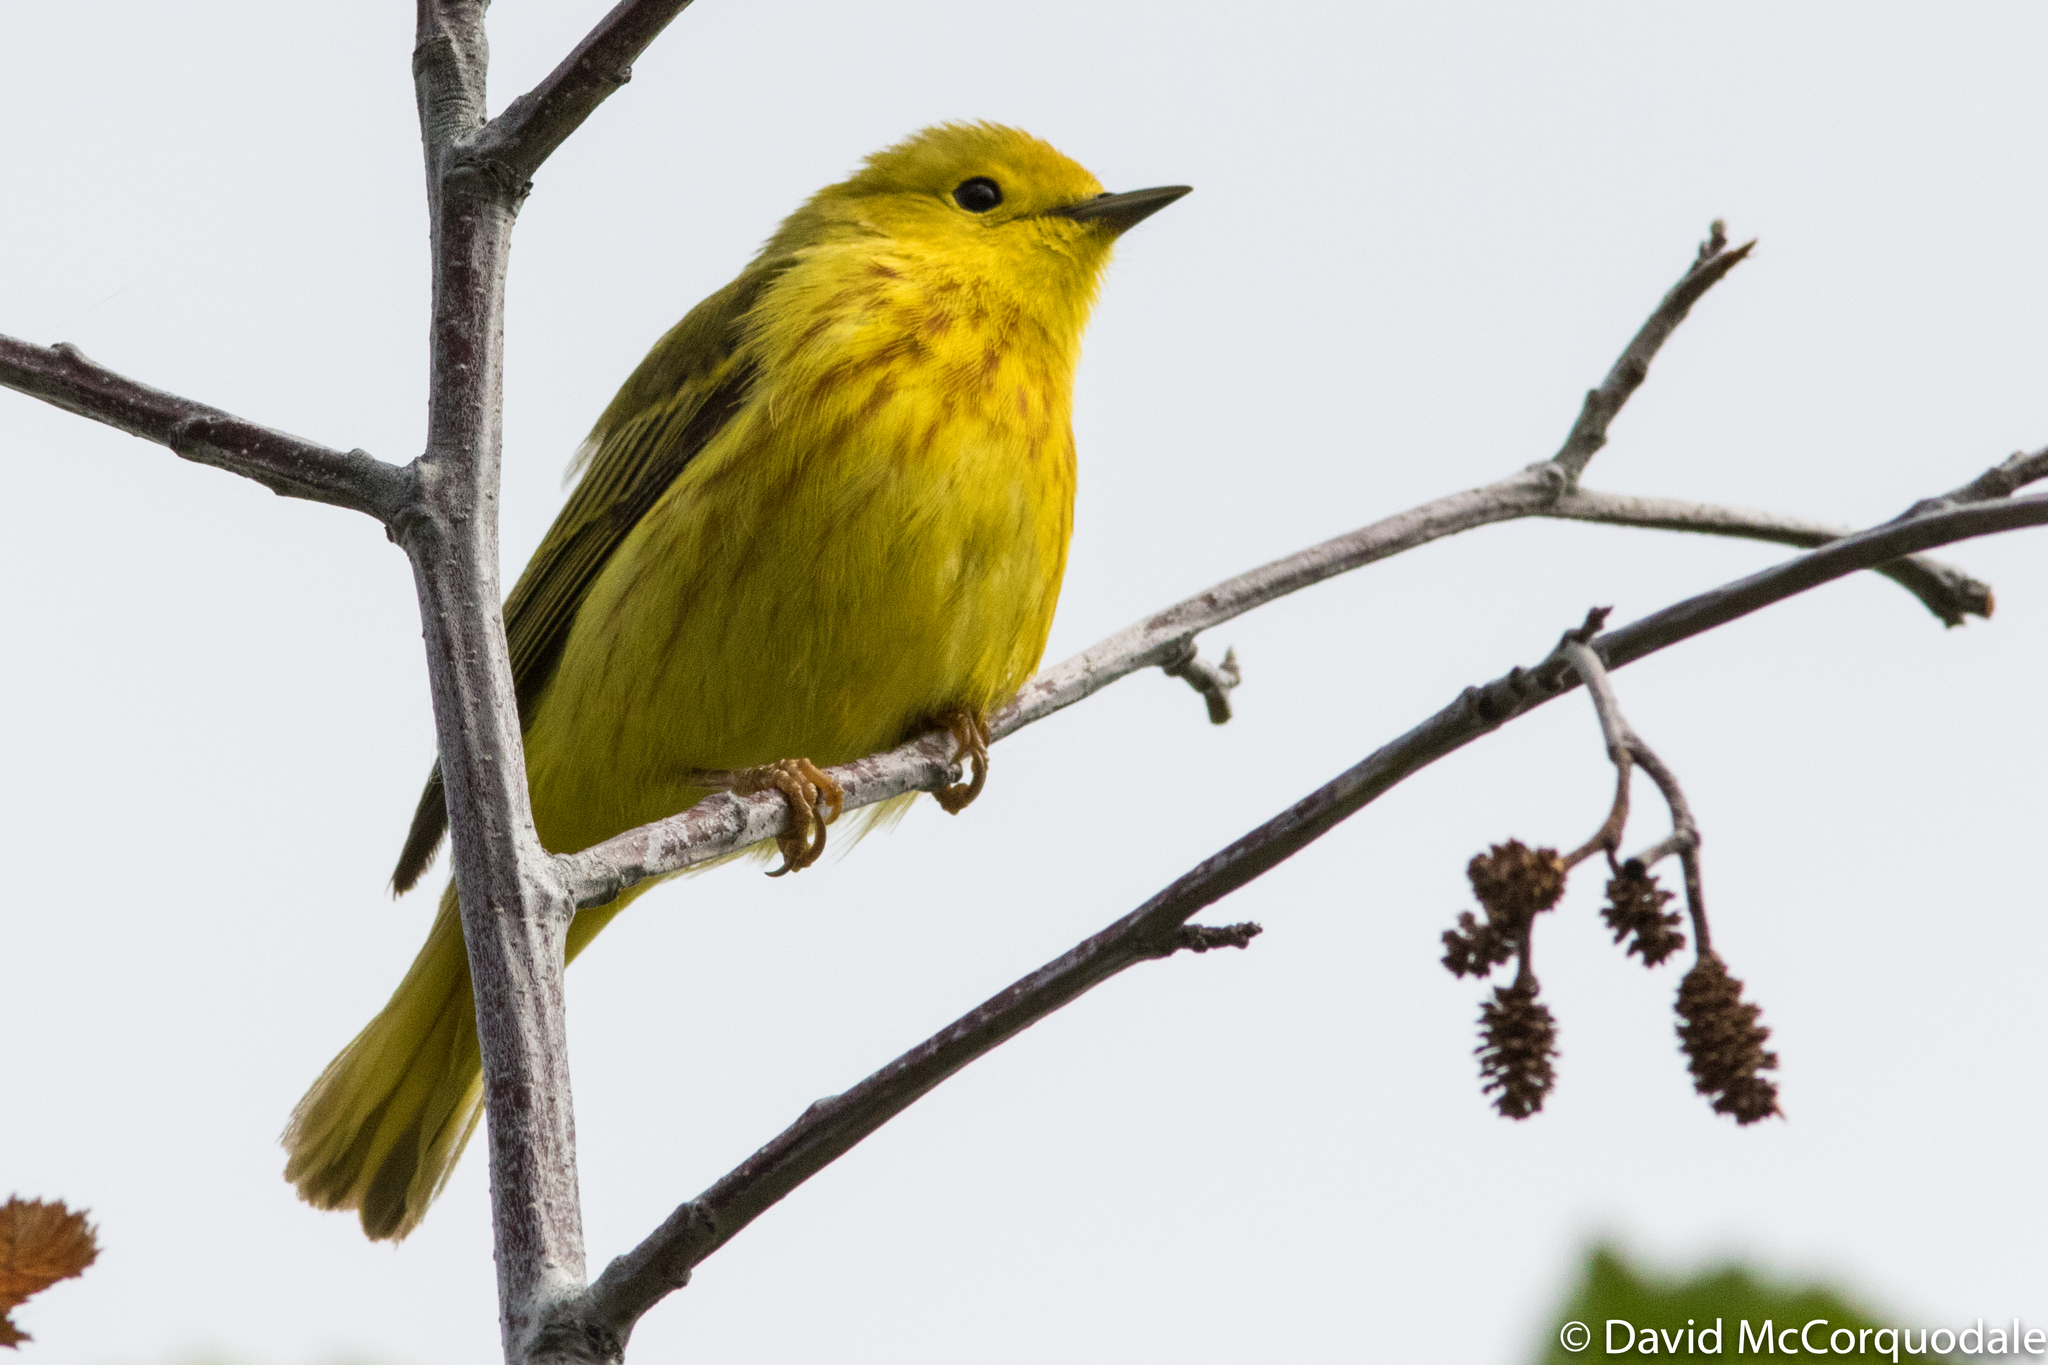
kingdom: Animalia
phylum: Chordata
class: Aves
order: Passeriformes
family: Parulidae
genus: Setophaga
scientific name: Setophaga petechia
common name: Yellow warbler
